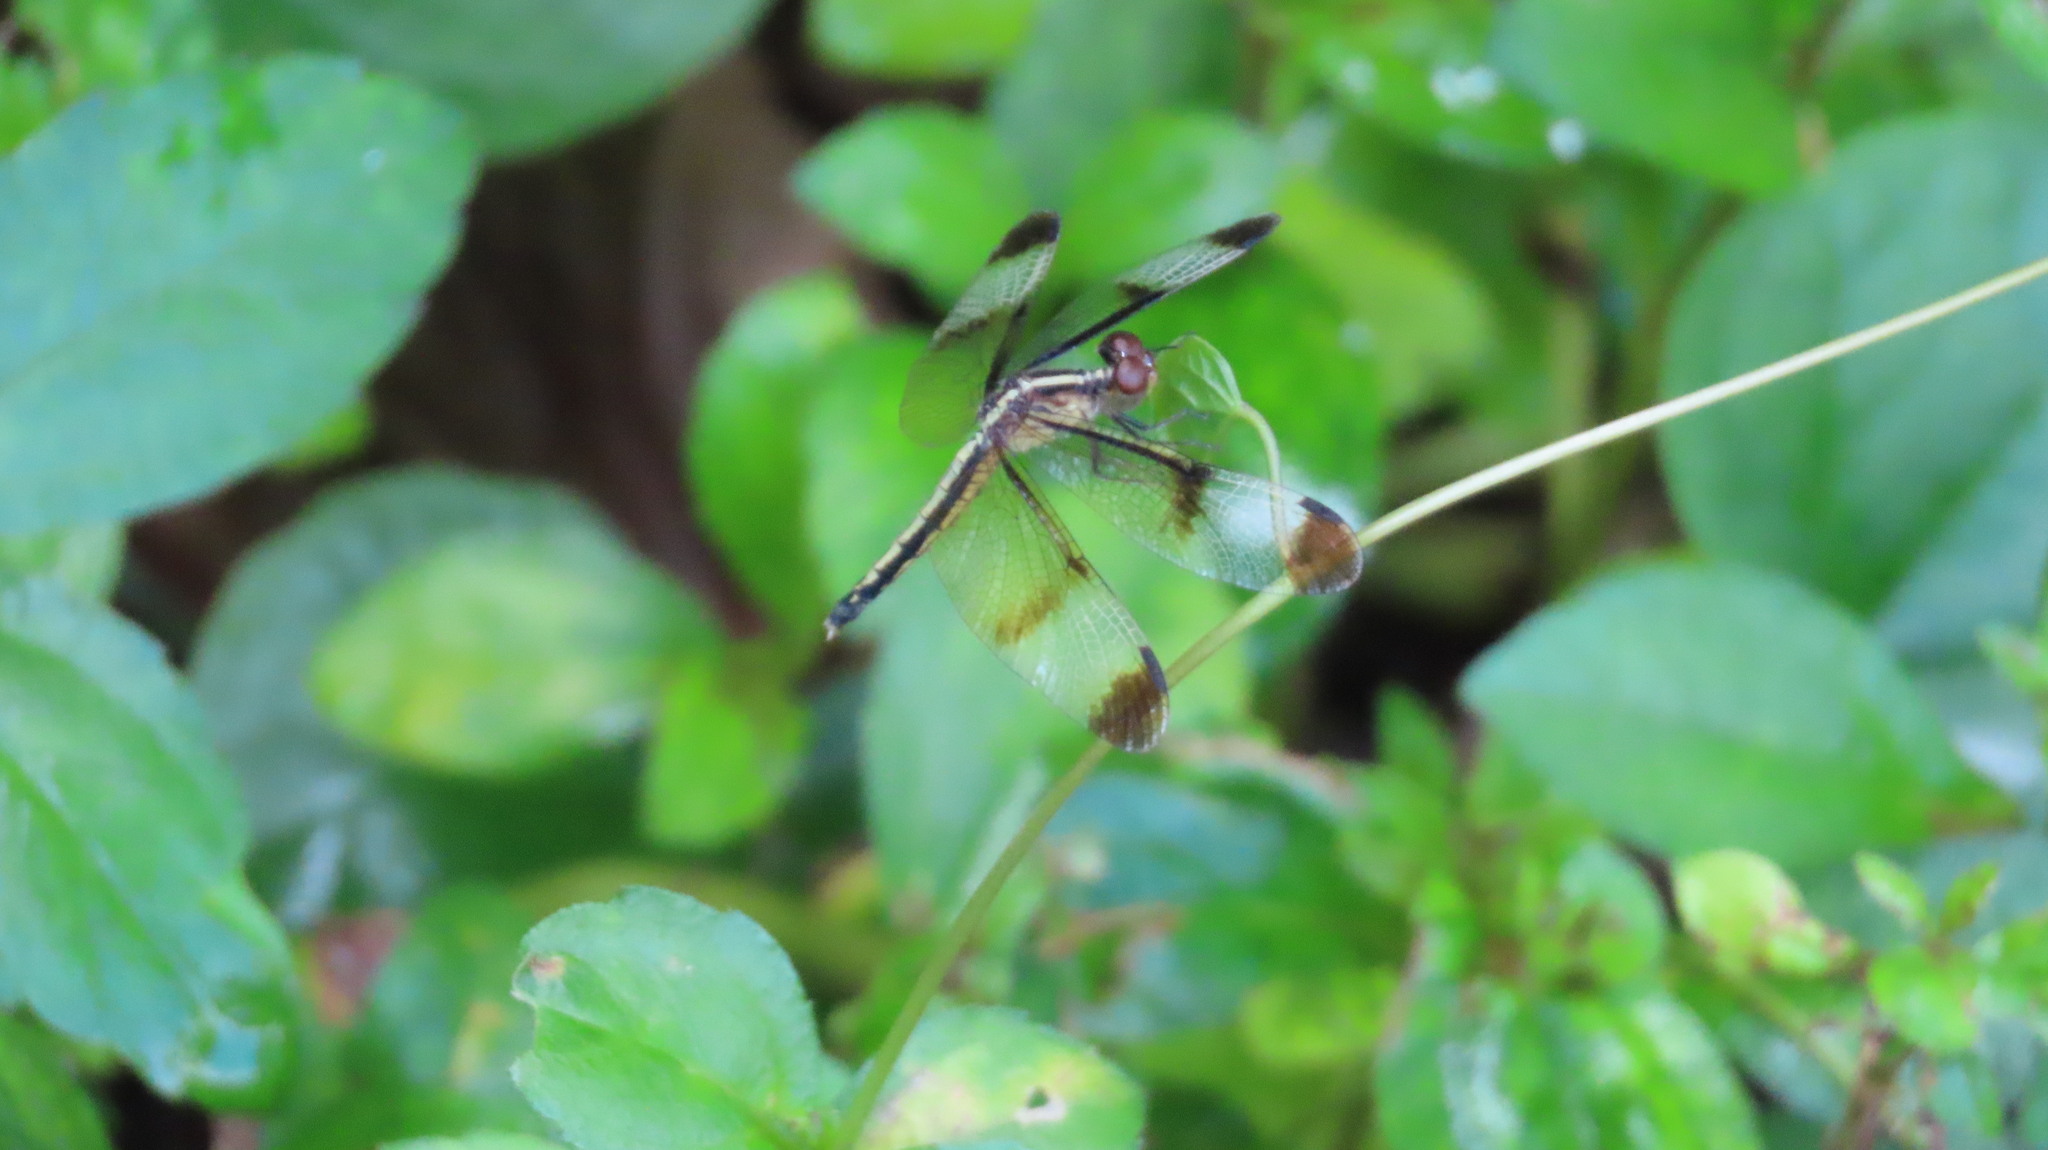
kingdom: Animalia
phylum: Arthropoda
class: Insecta
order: Odonata
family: Libellulidae
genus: Neurothemis
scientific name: Neurothemis tullia
